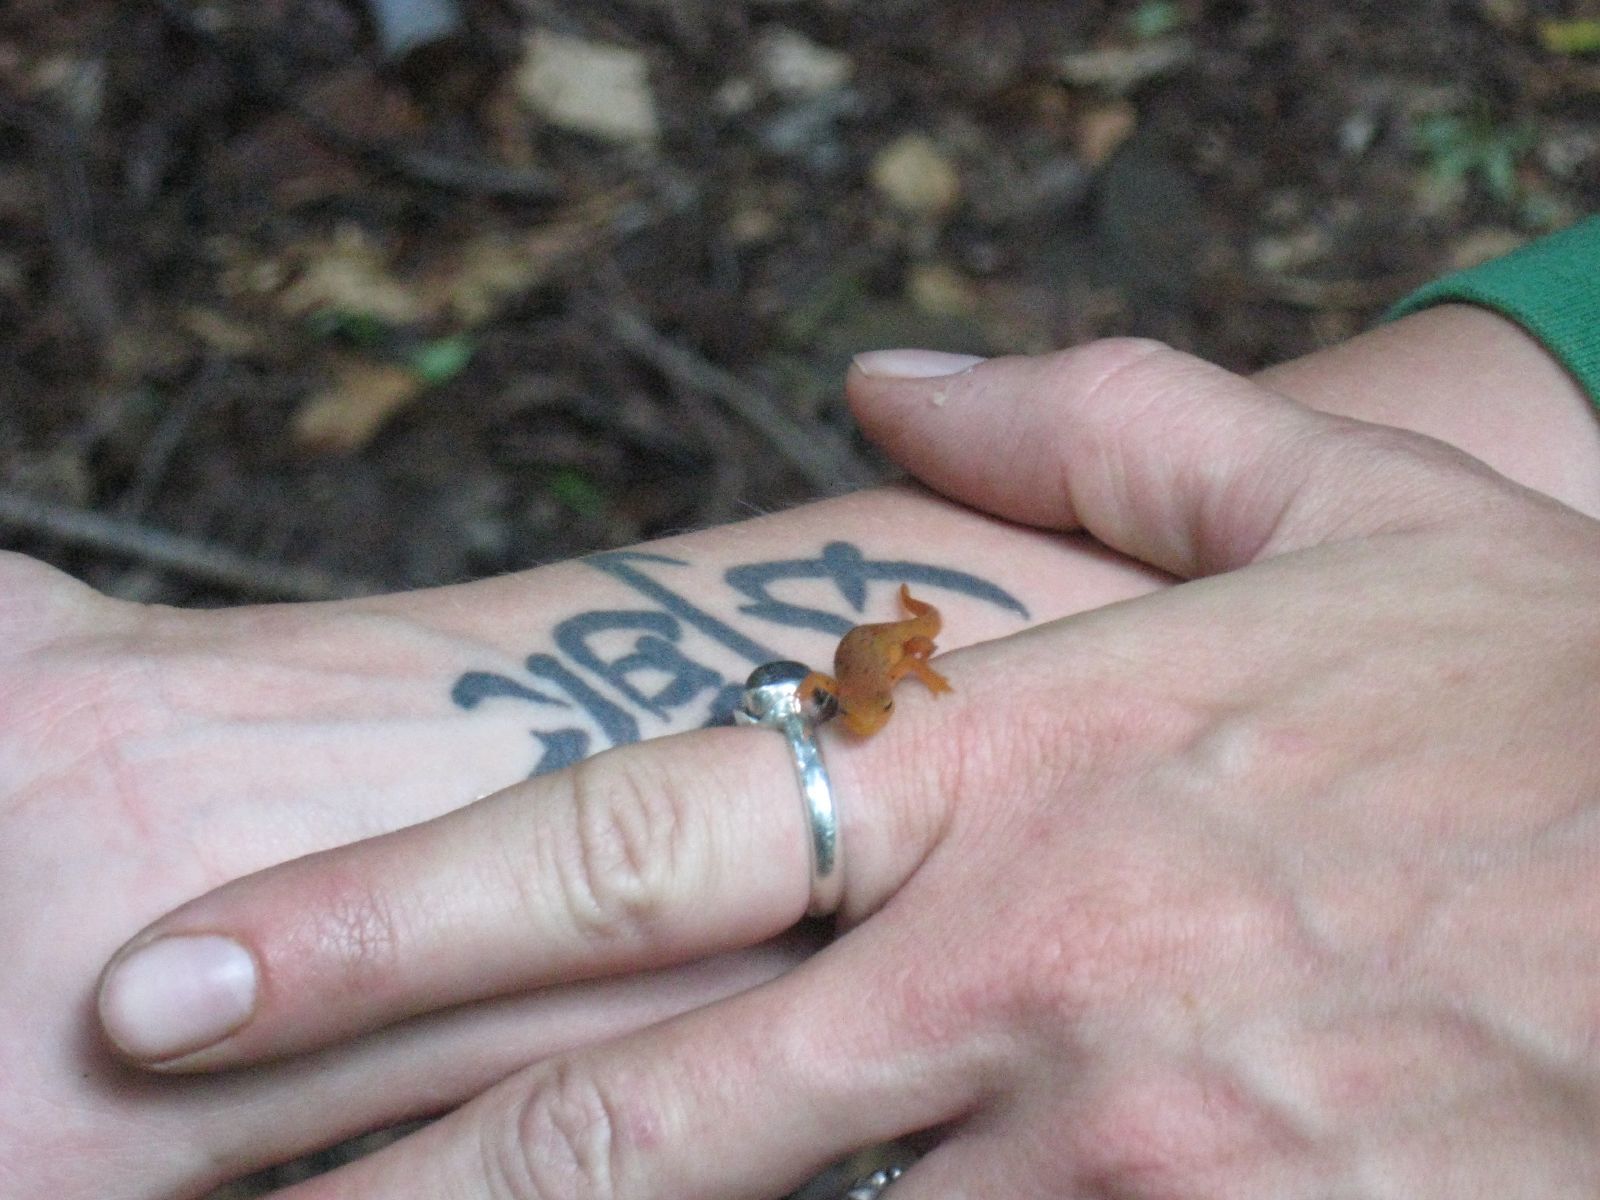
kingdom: Animalia
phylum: Chordata
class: Amphibia
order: Caudata
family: Salamandridae
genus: Notophthalmus
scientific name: Notophthalmus viridescens
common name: Eastern newt
